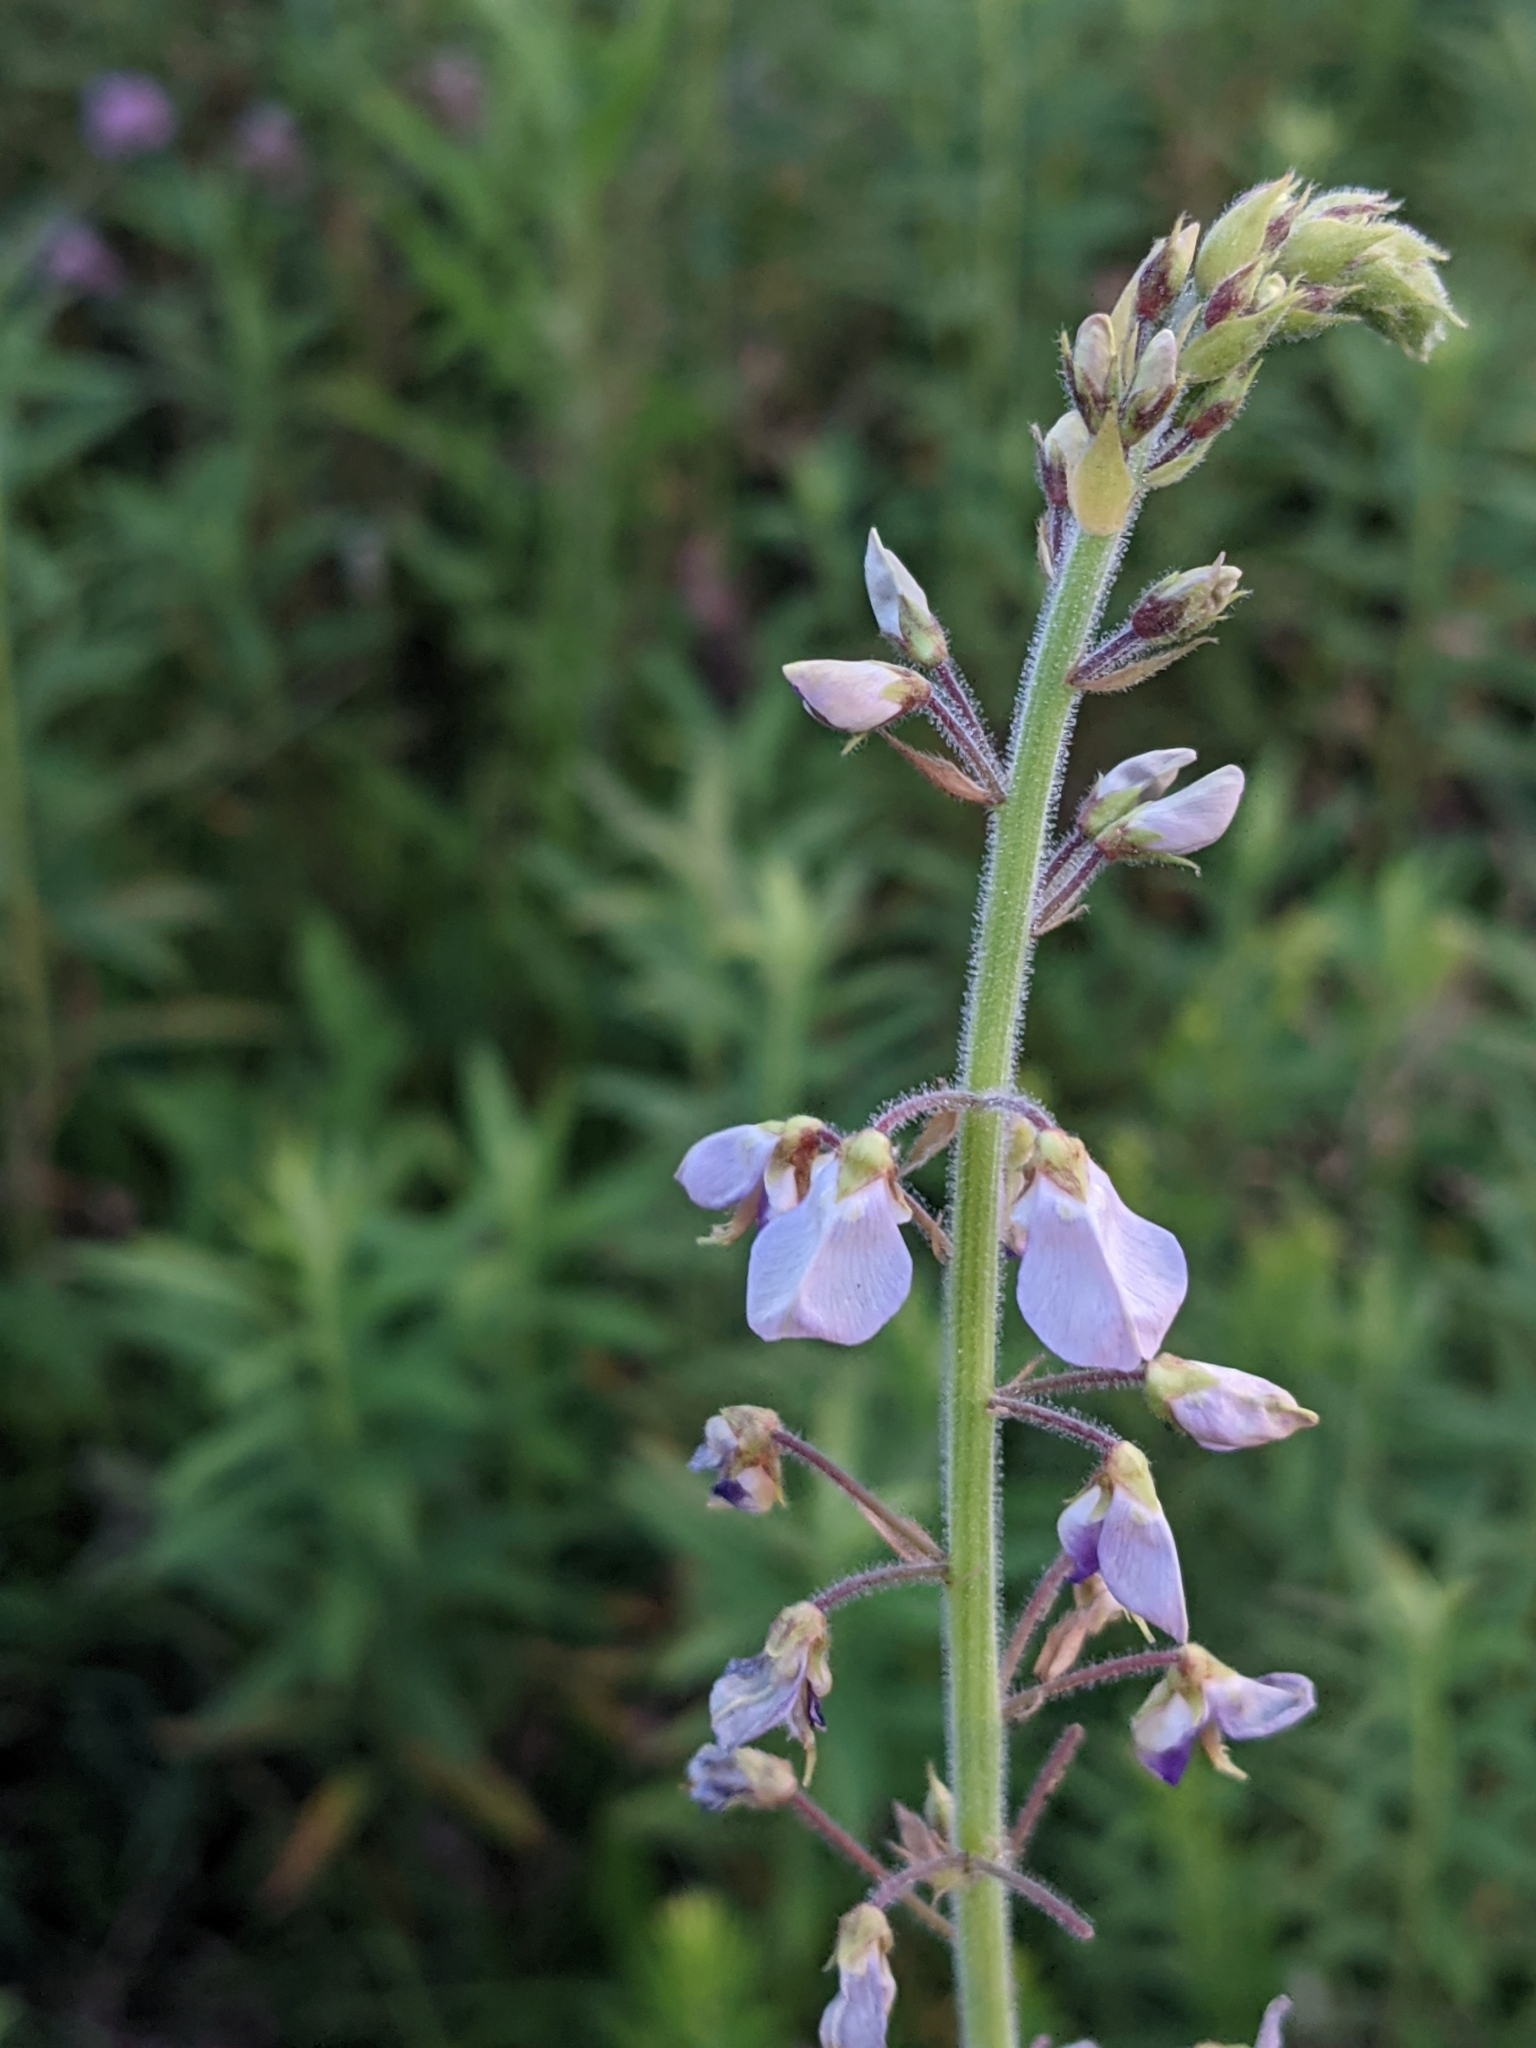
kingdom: Plantae
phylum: Tracheophyta
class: Magnoliopsida
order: Fabales
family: Fabaceae
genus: Desmodium
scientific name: Desmodium illinoense
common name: Illinois tick-clover
